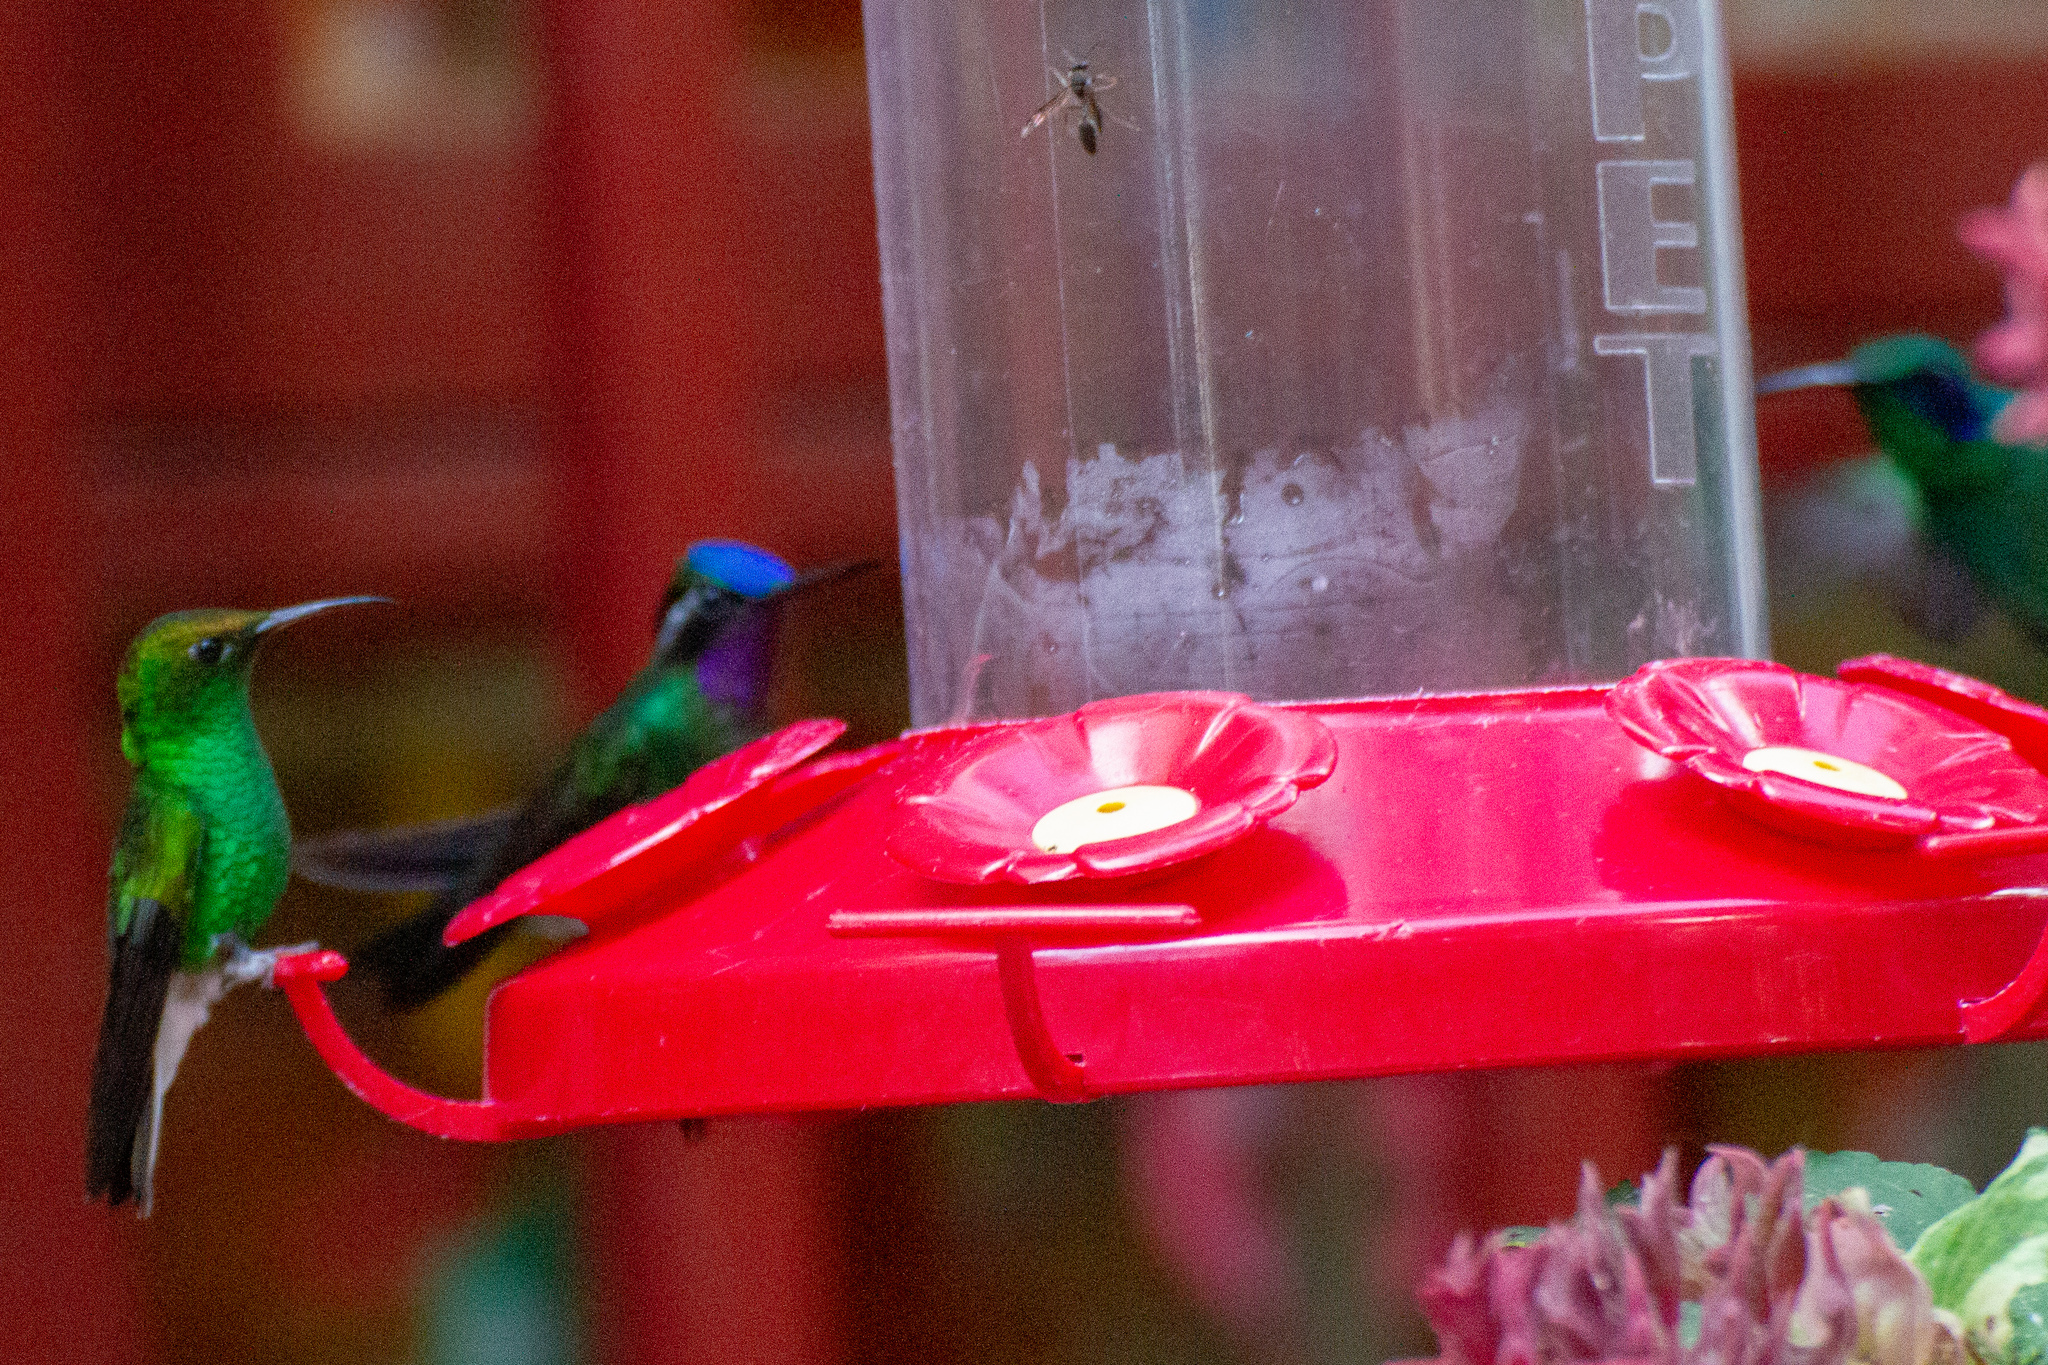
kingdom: Animalia
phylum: Chordata
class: Aves
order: Apodiformes
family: Trochilidae
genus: Lampornis
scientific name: Lampornis calolaemus
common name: Purple-throated mountain-gem
